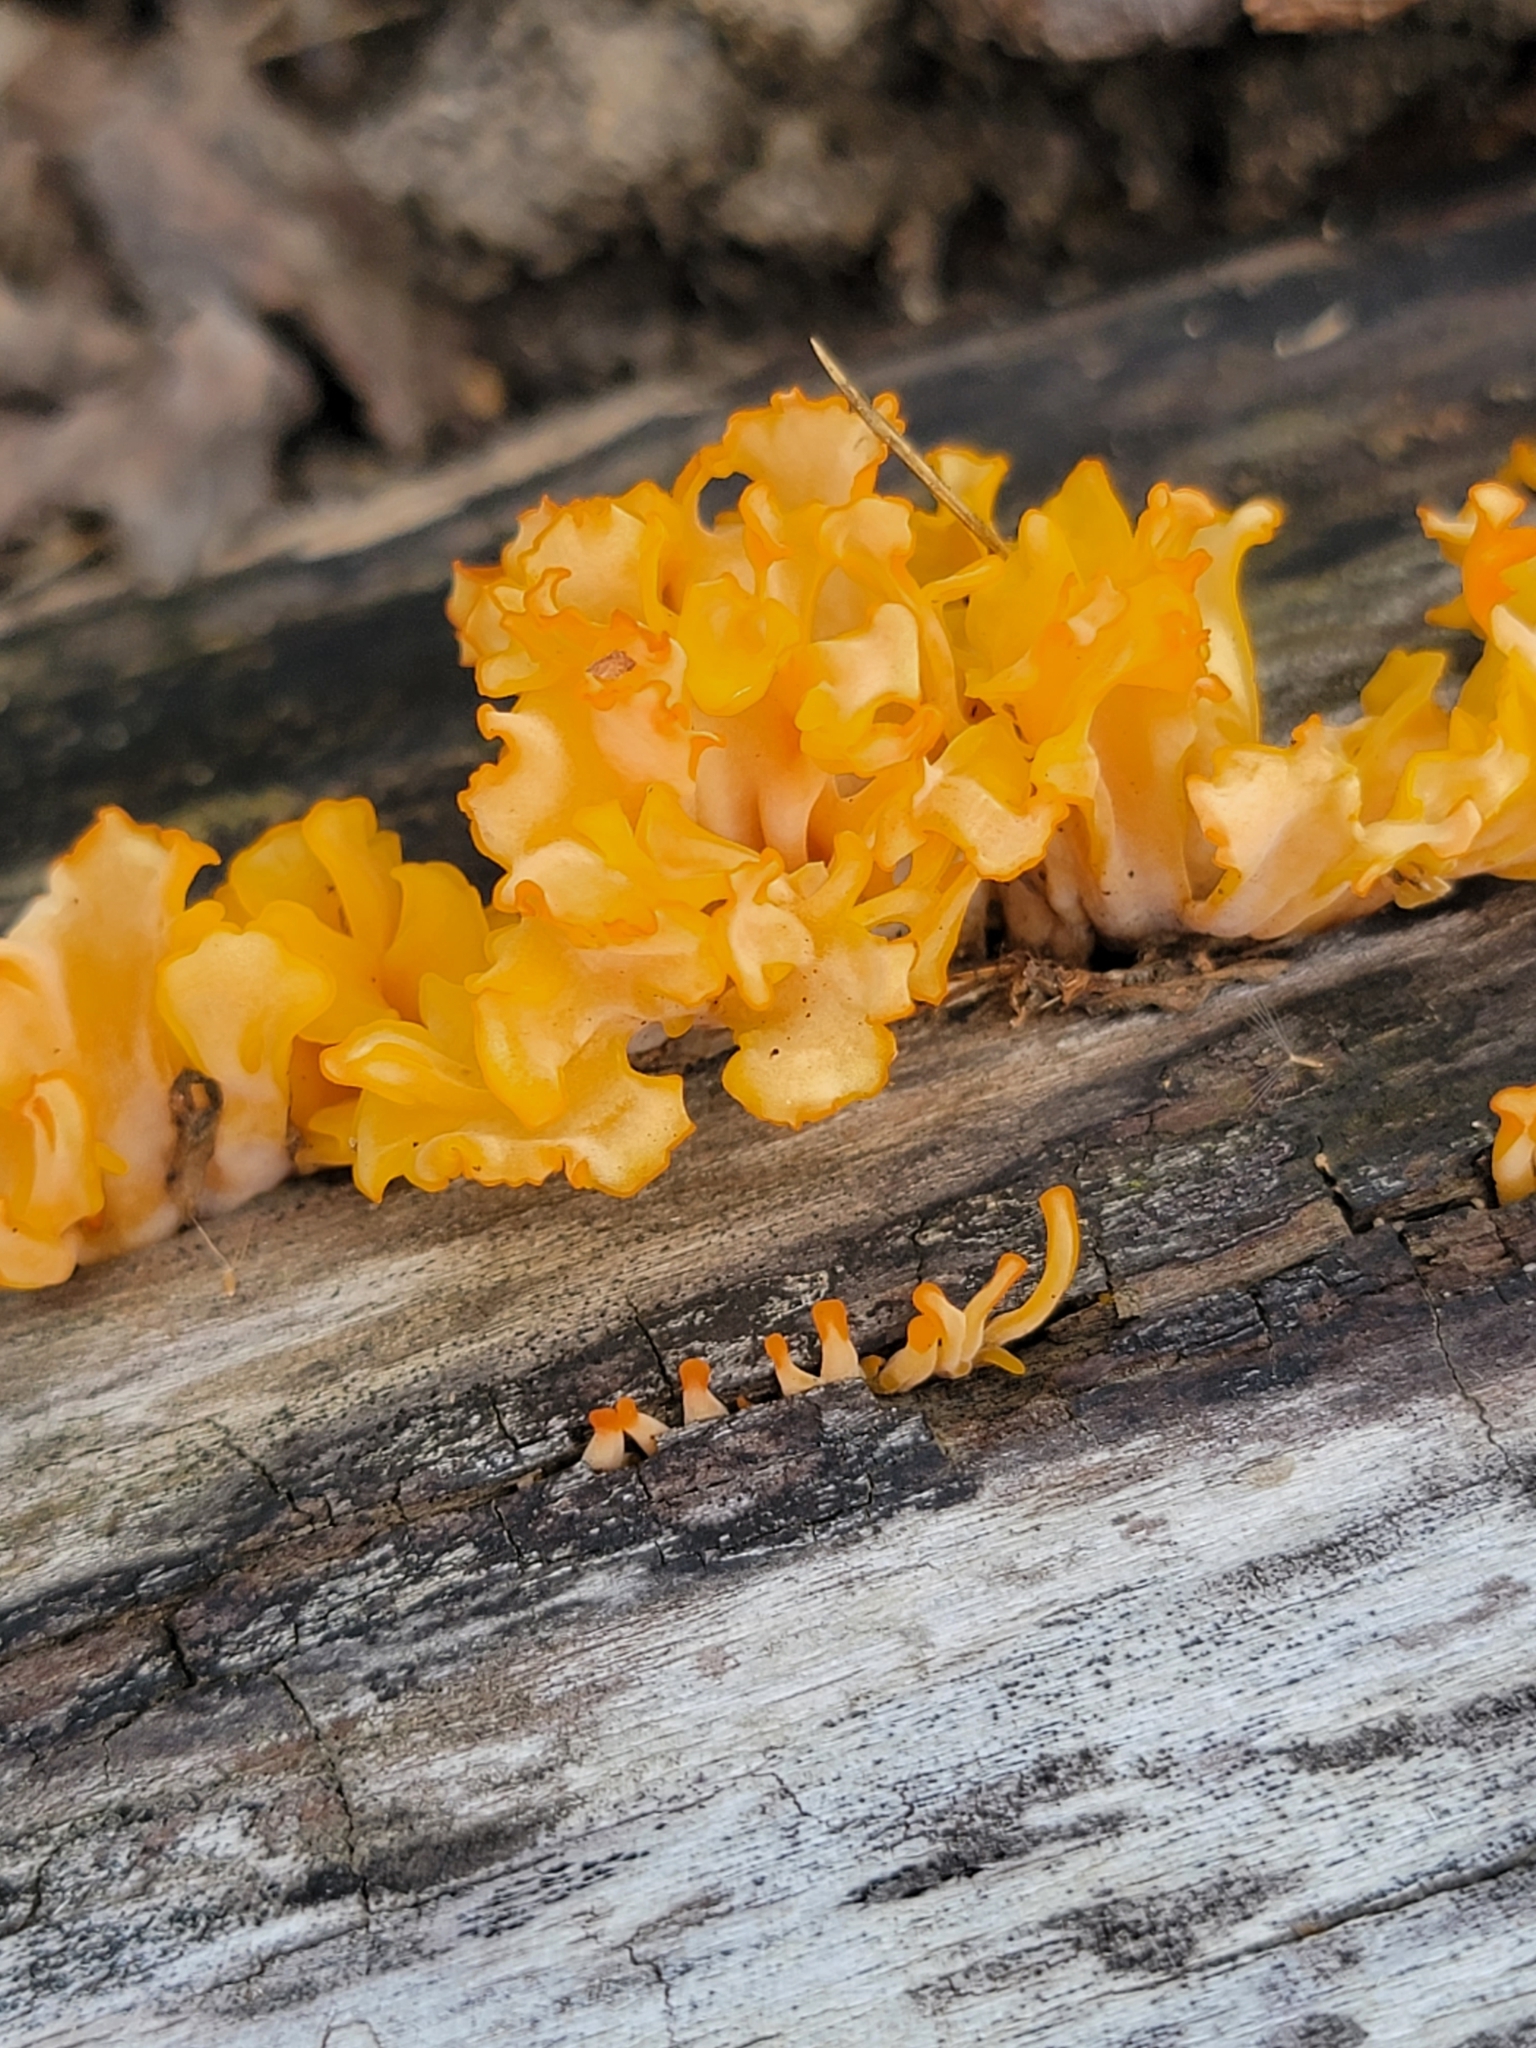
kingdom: Fungi
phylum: Basidiomycota
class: Dacrymycetes
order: Dacrymycetales
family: Dacrymycetaceae
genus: Dacrymyces
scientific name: Dacrymyces spathularius
